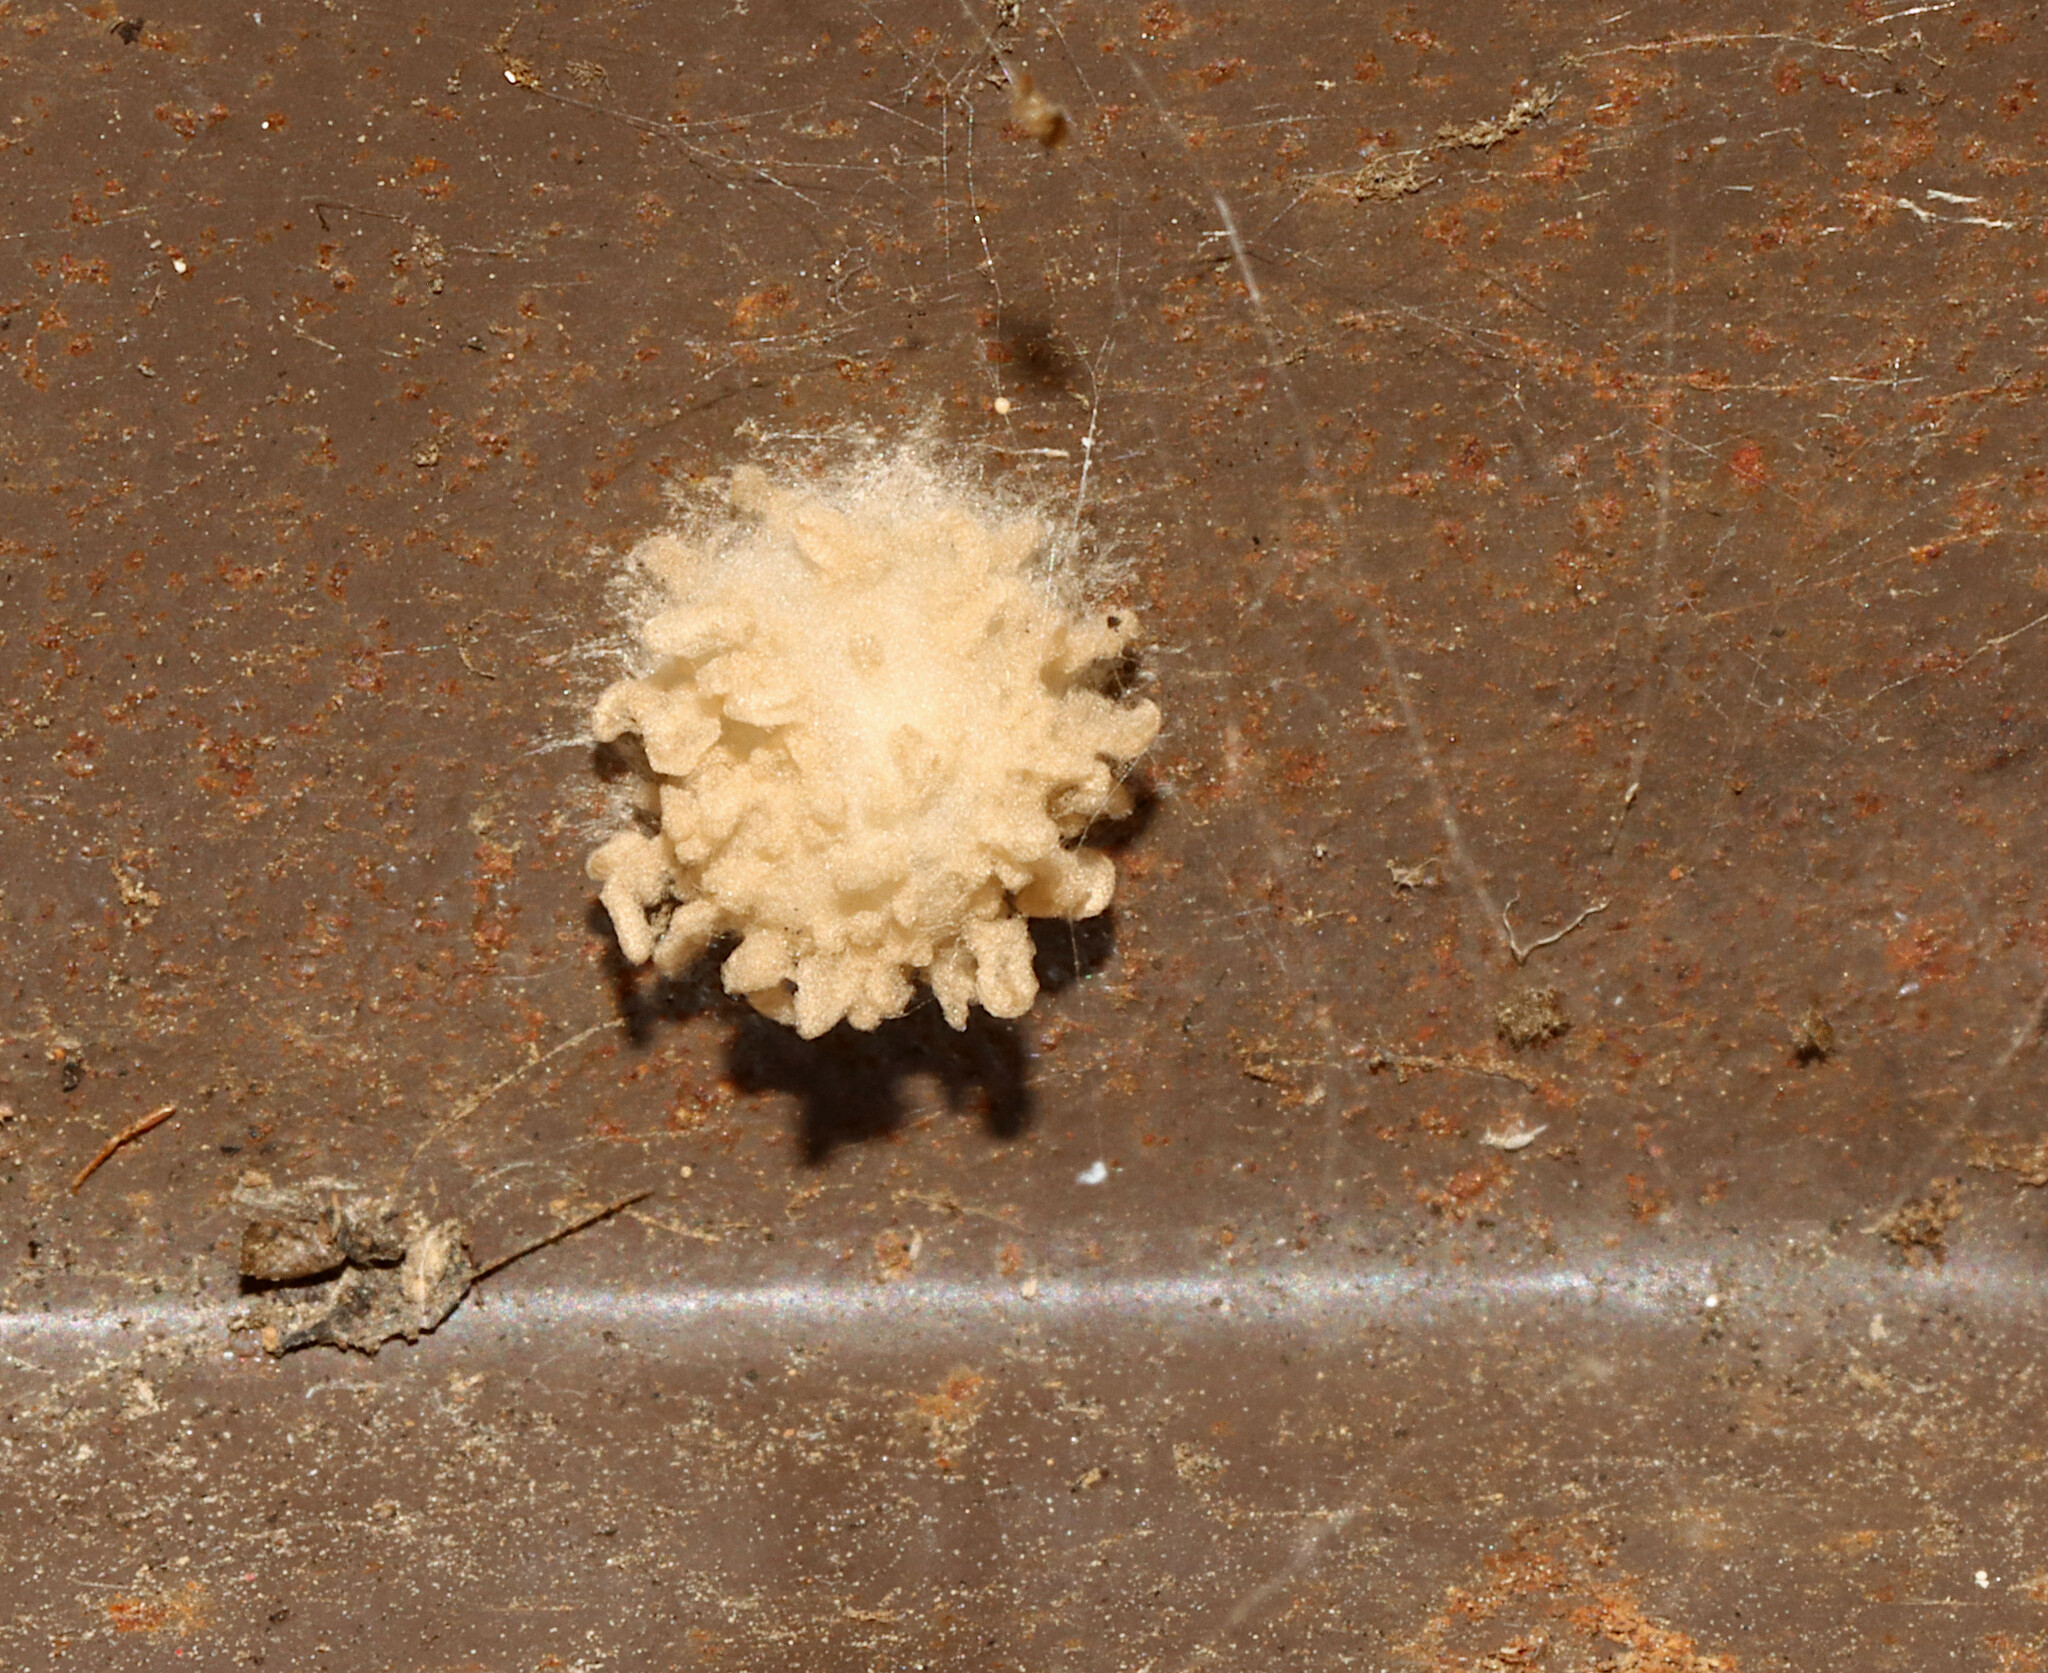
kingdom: Animalia
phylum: Arthropoda
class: Arachnida
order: Araneae
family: Theridiidae
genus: Euryopis
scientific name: Euryopis
